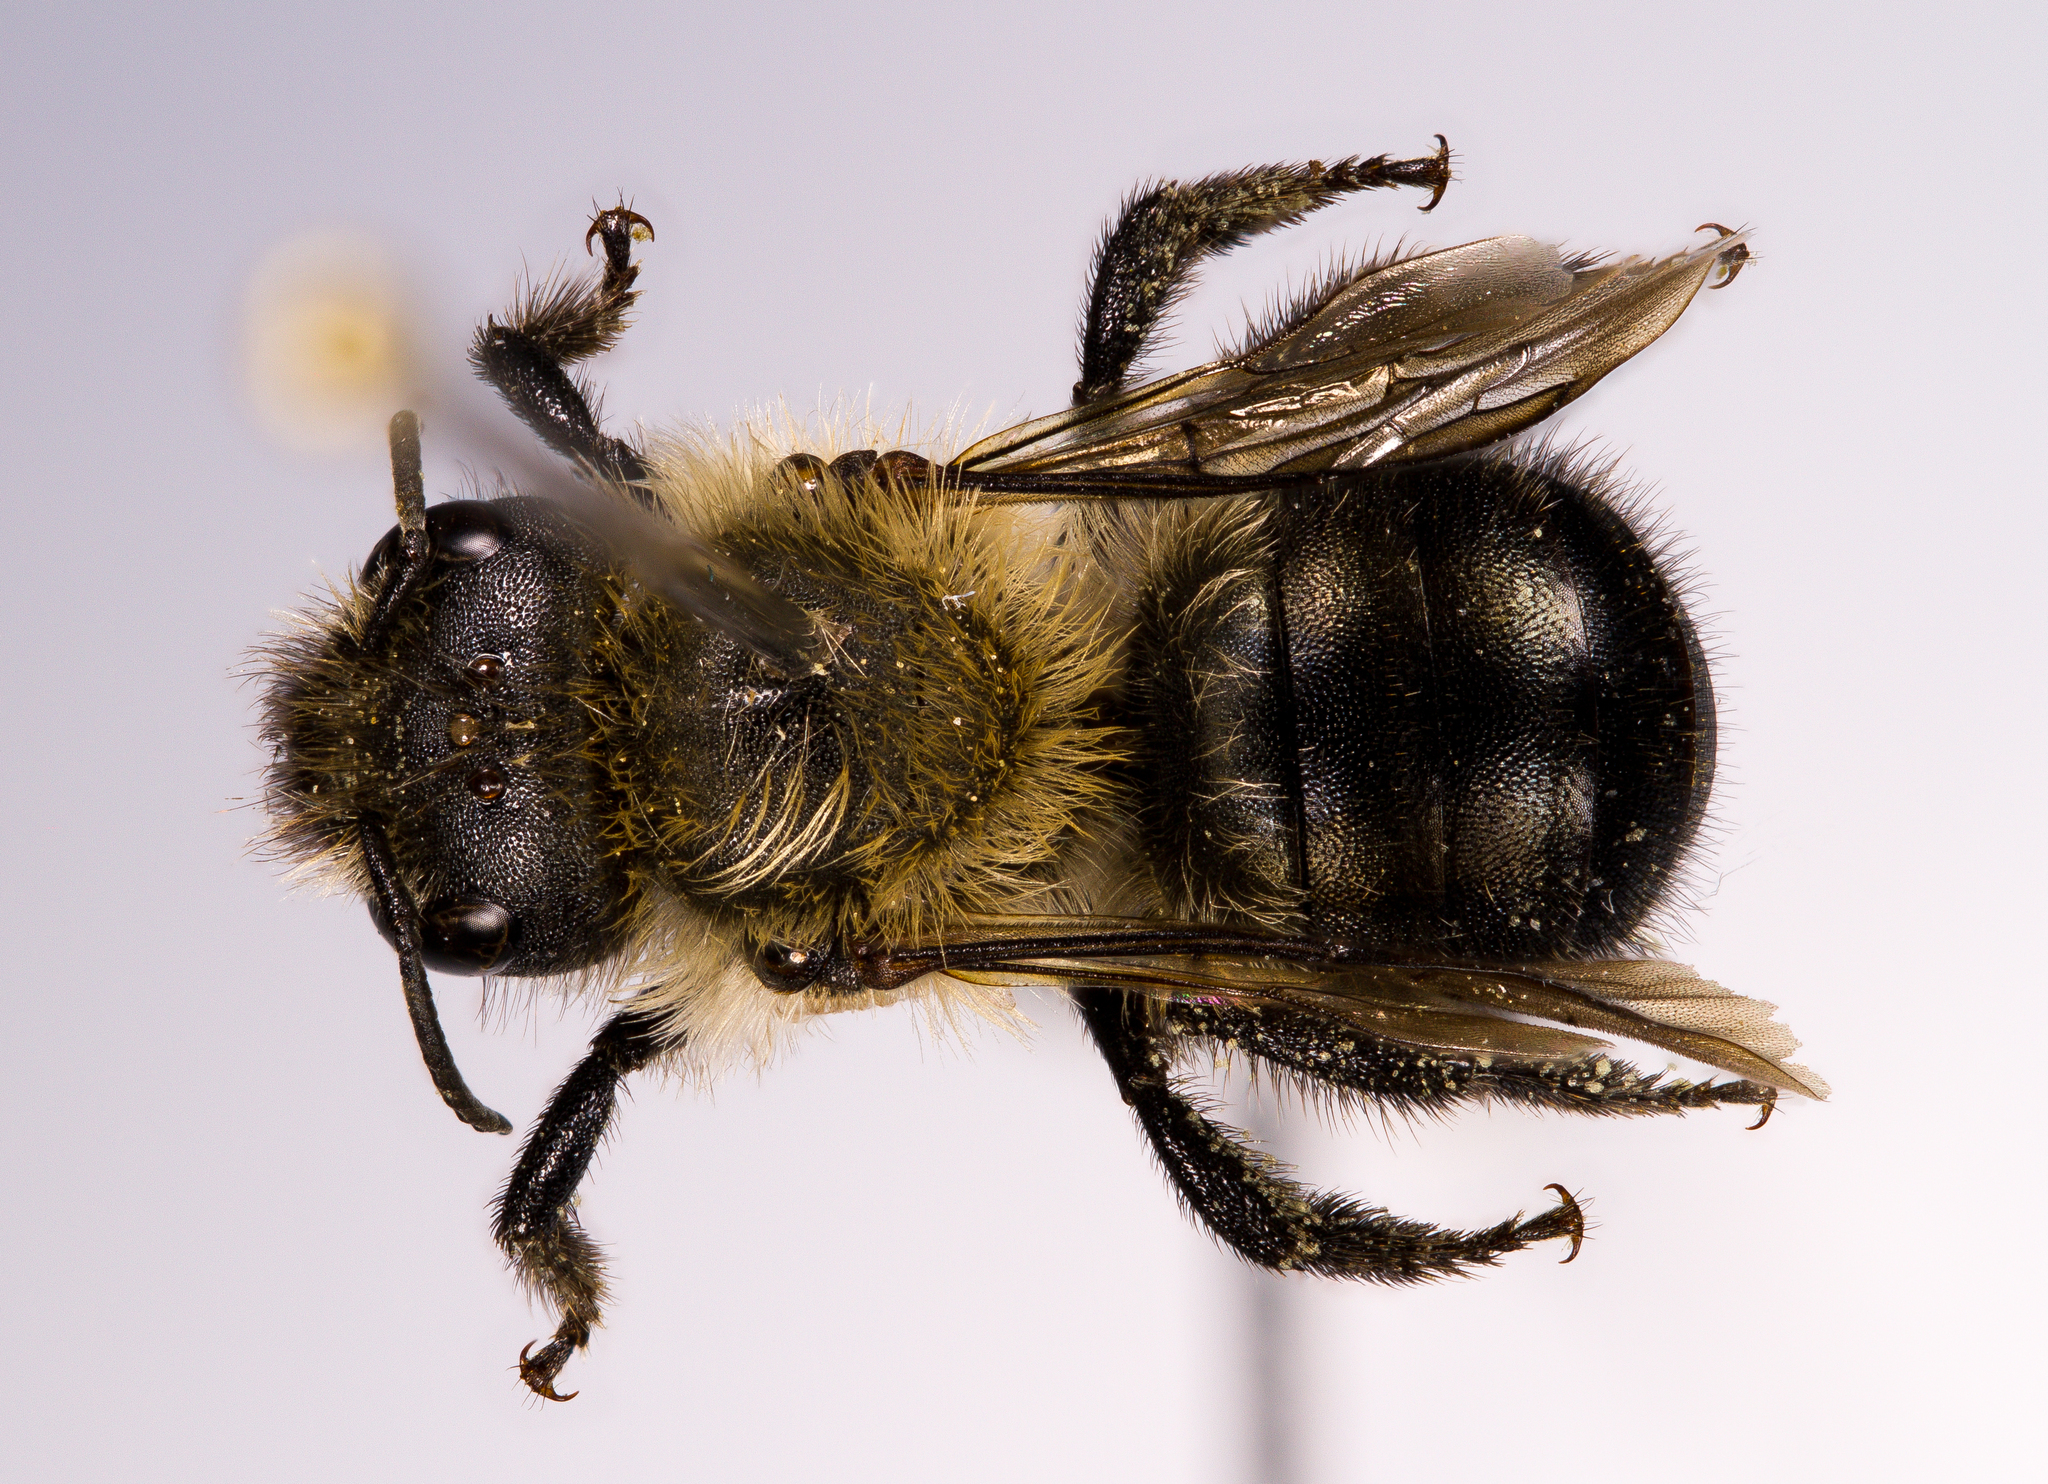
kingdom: Animalia
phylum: Arthropoda
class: Insecta
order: Hymenoptera
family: Megachilidae
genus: Osmia
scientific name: Osmia inermis
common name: Mountain mason bee
